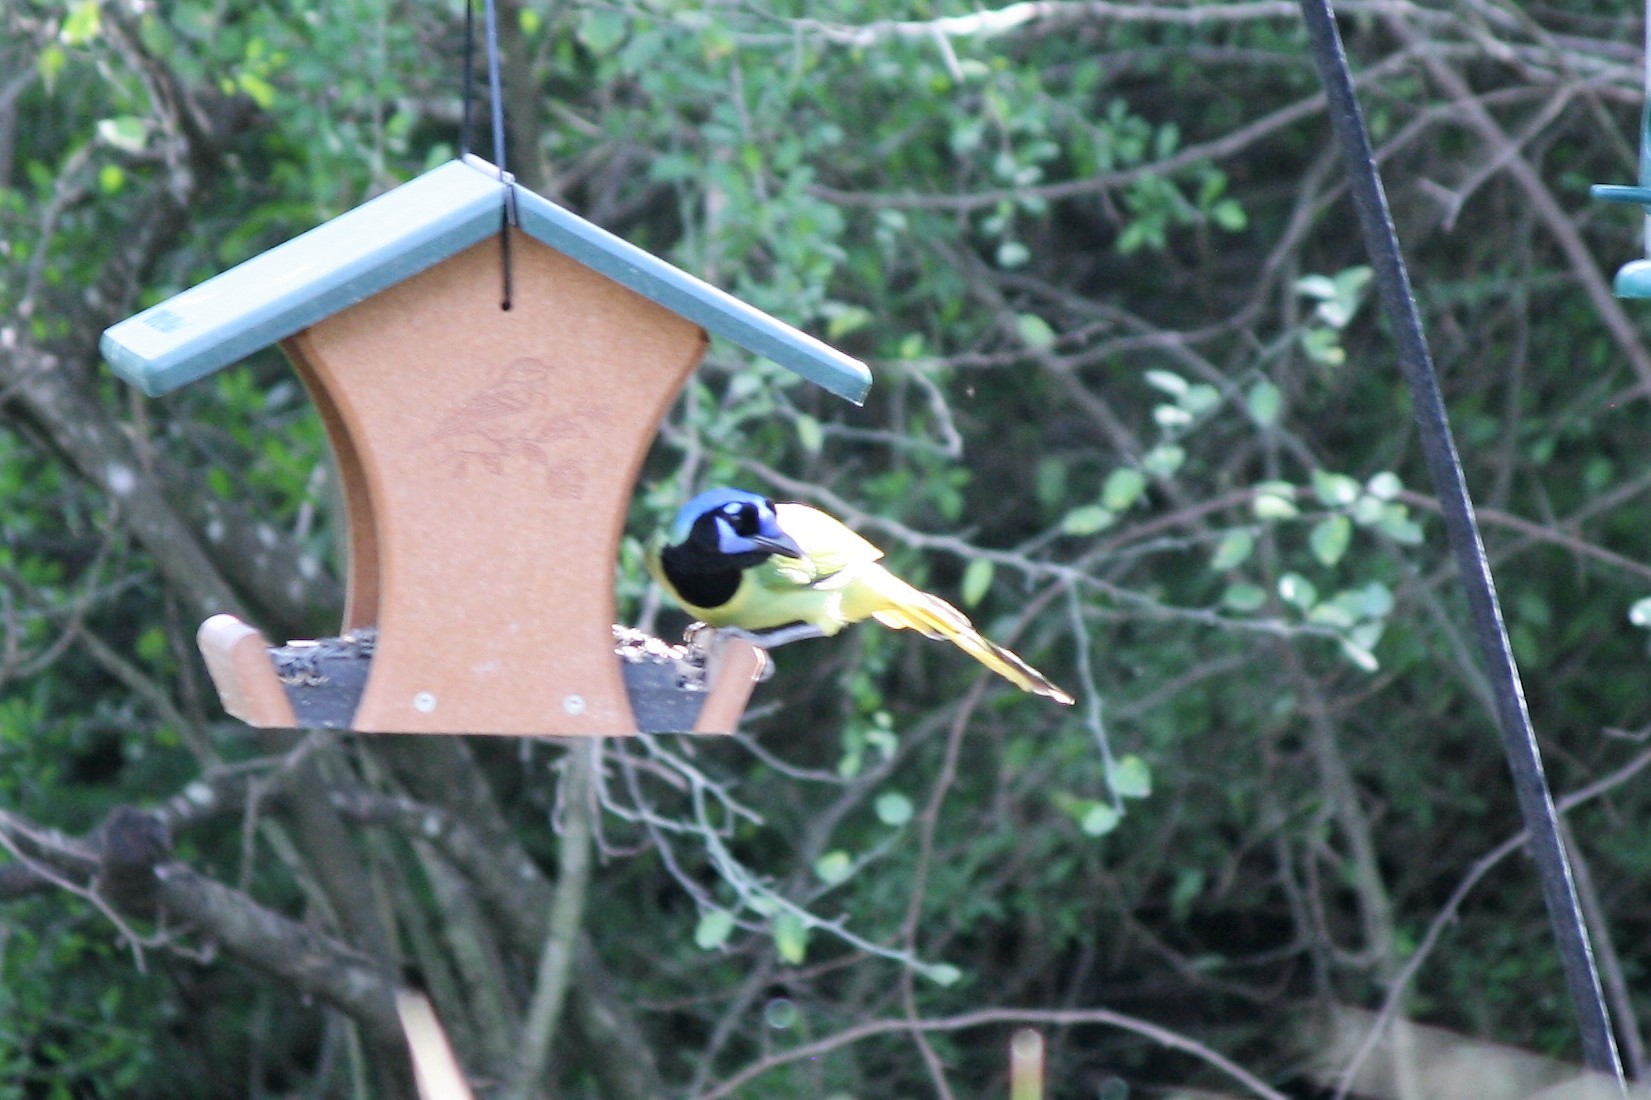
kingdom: Animalia
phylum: Chordata
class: Aves
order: Passeriformes
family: Corvidae
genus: Cyanocorax
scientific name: Cyanocorax yncas
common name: Green jay
